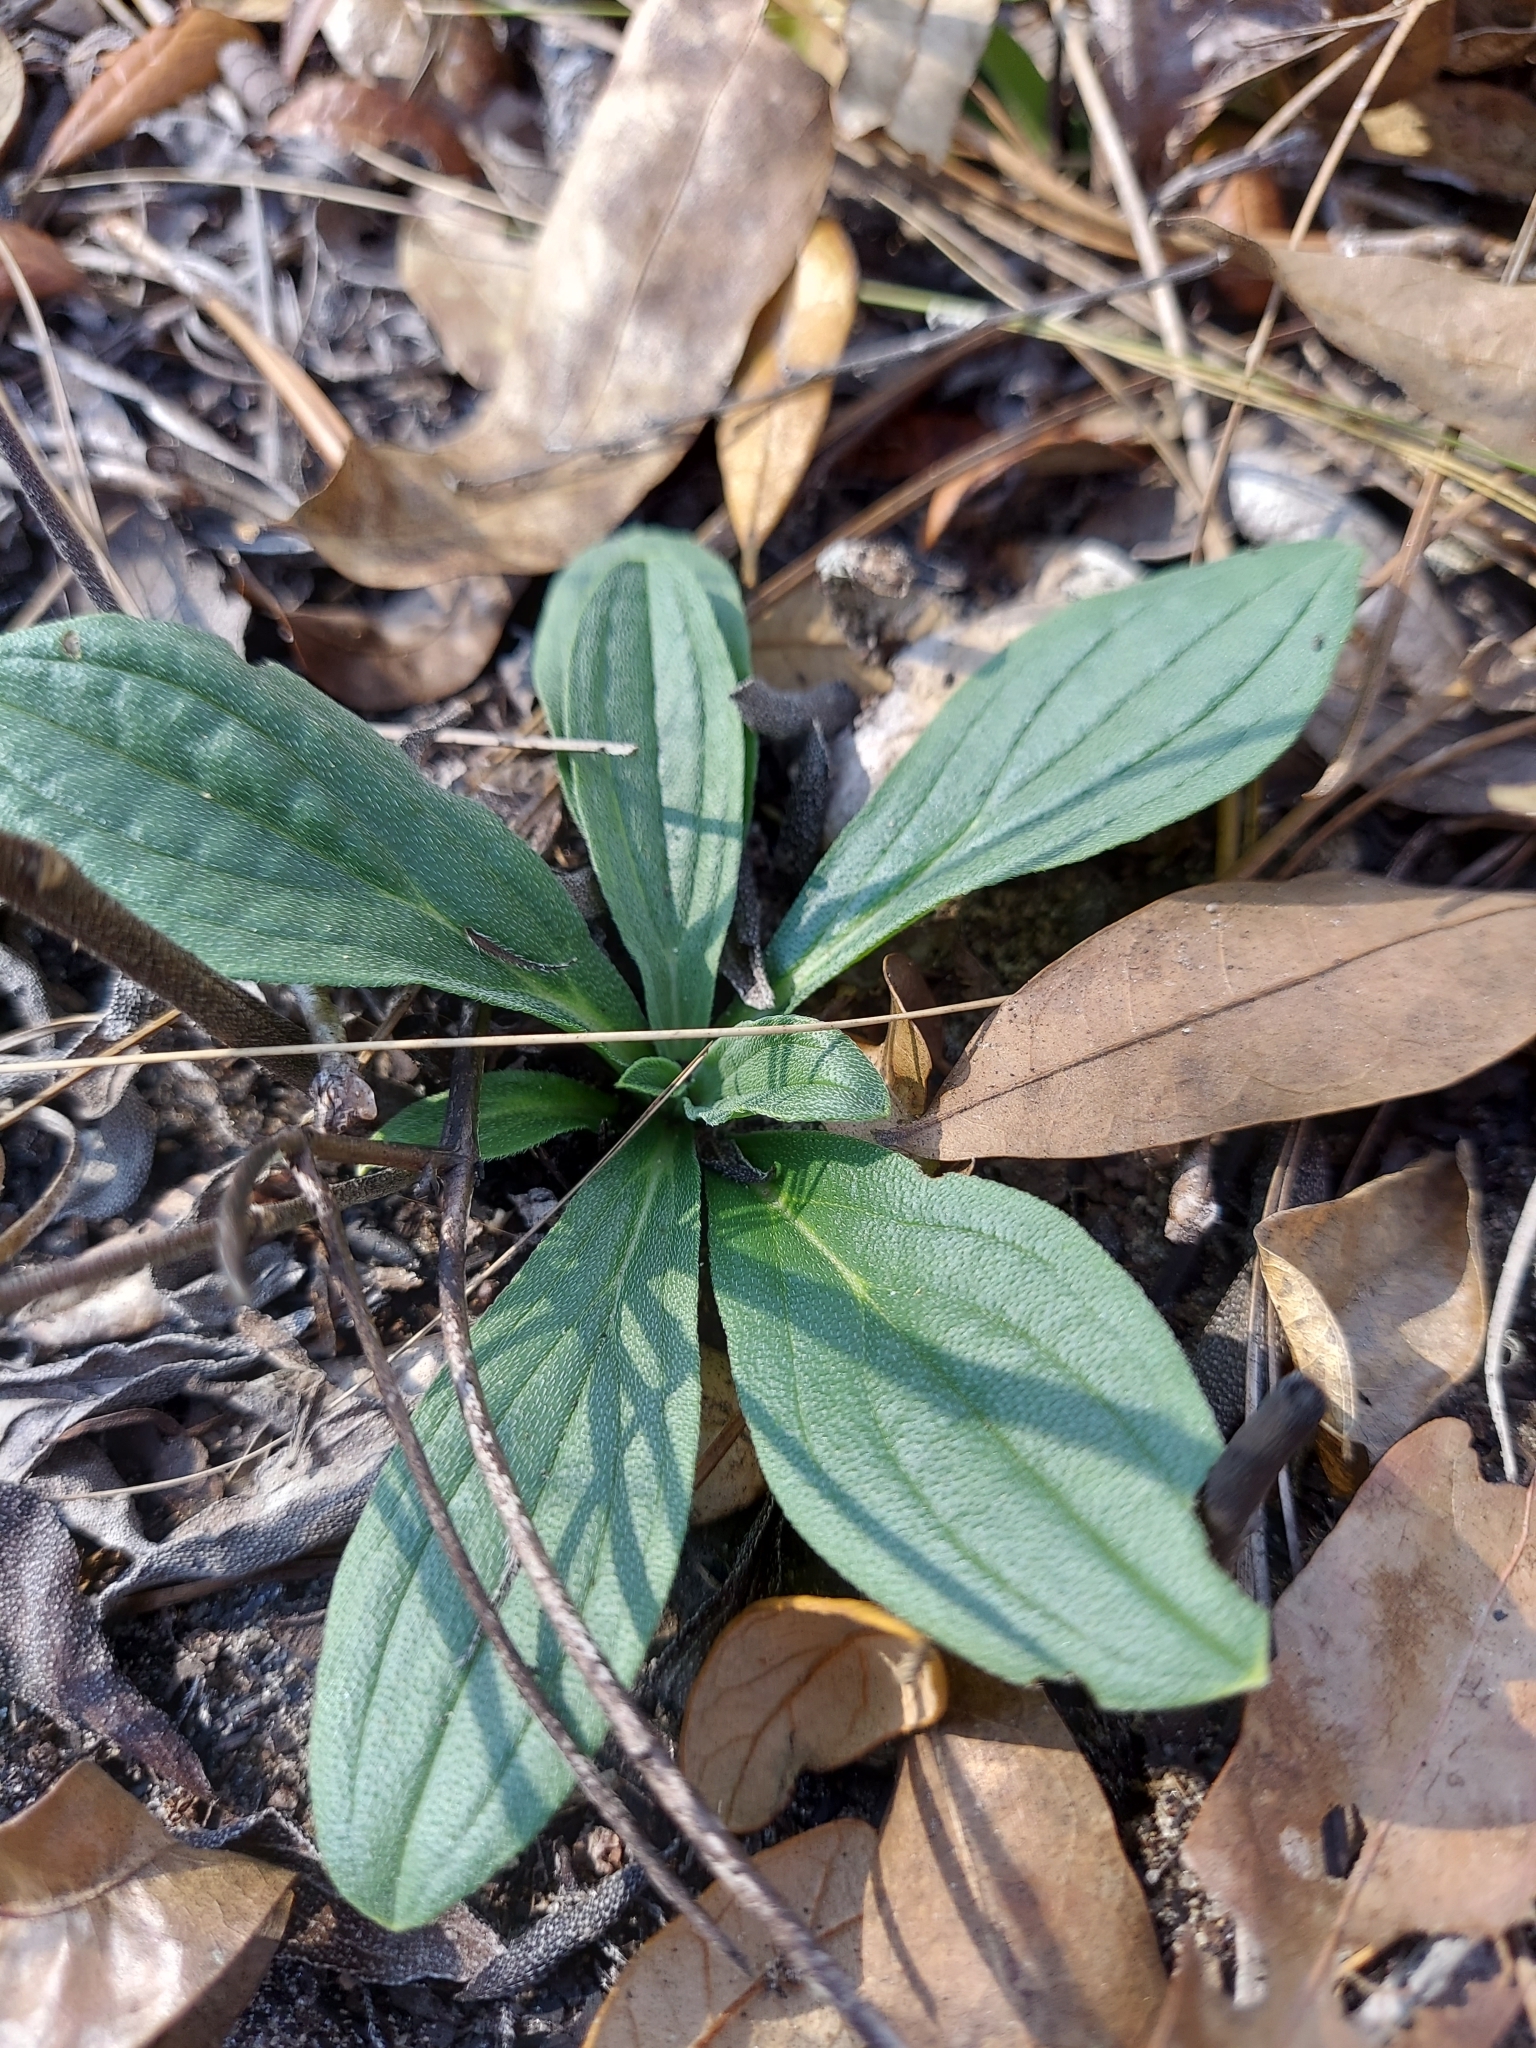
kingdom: Plantae
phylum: Tracheophyta
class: Magnoliopsida
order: Boraginales
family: Boraginaceae
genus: Lithospermum
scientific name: Lithospermum virginianum
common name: Eastern false gromwell
